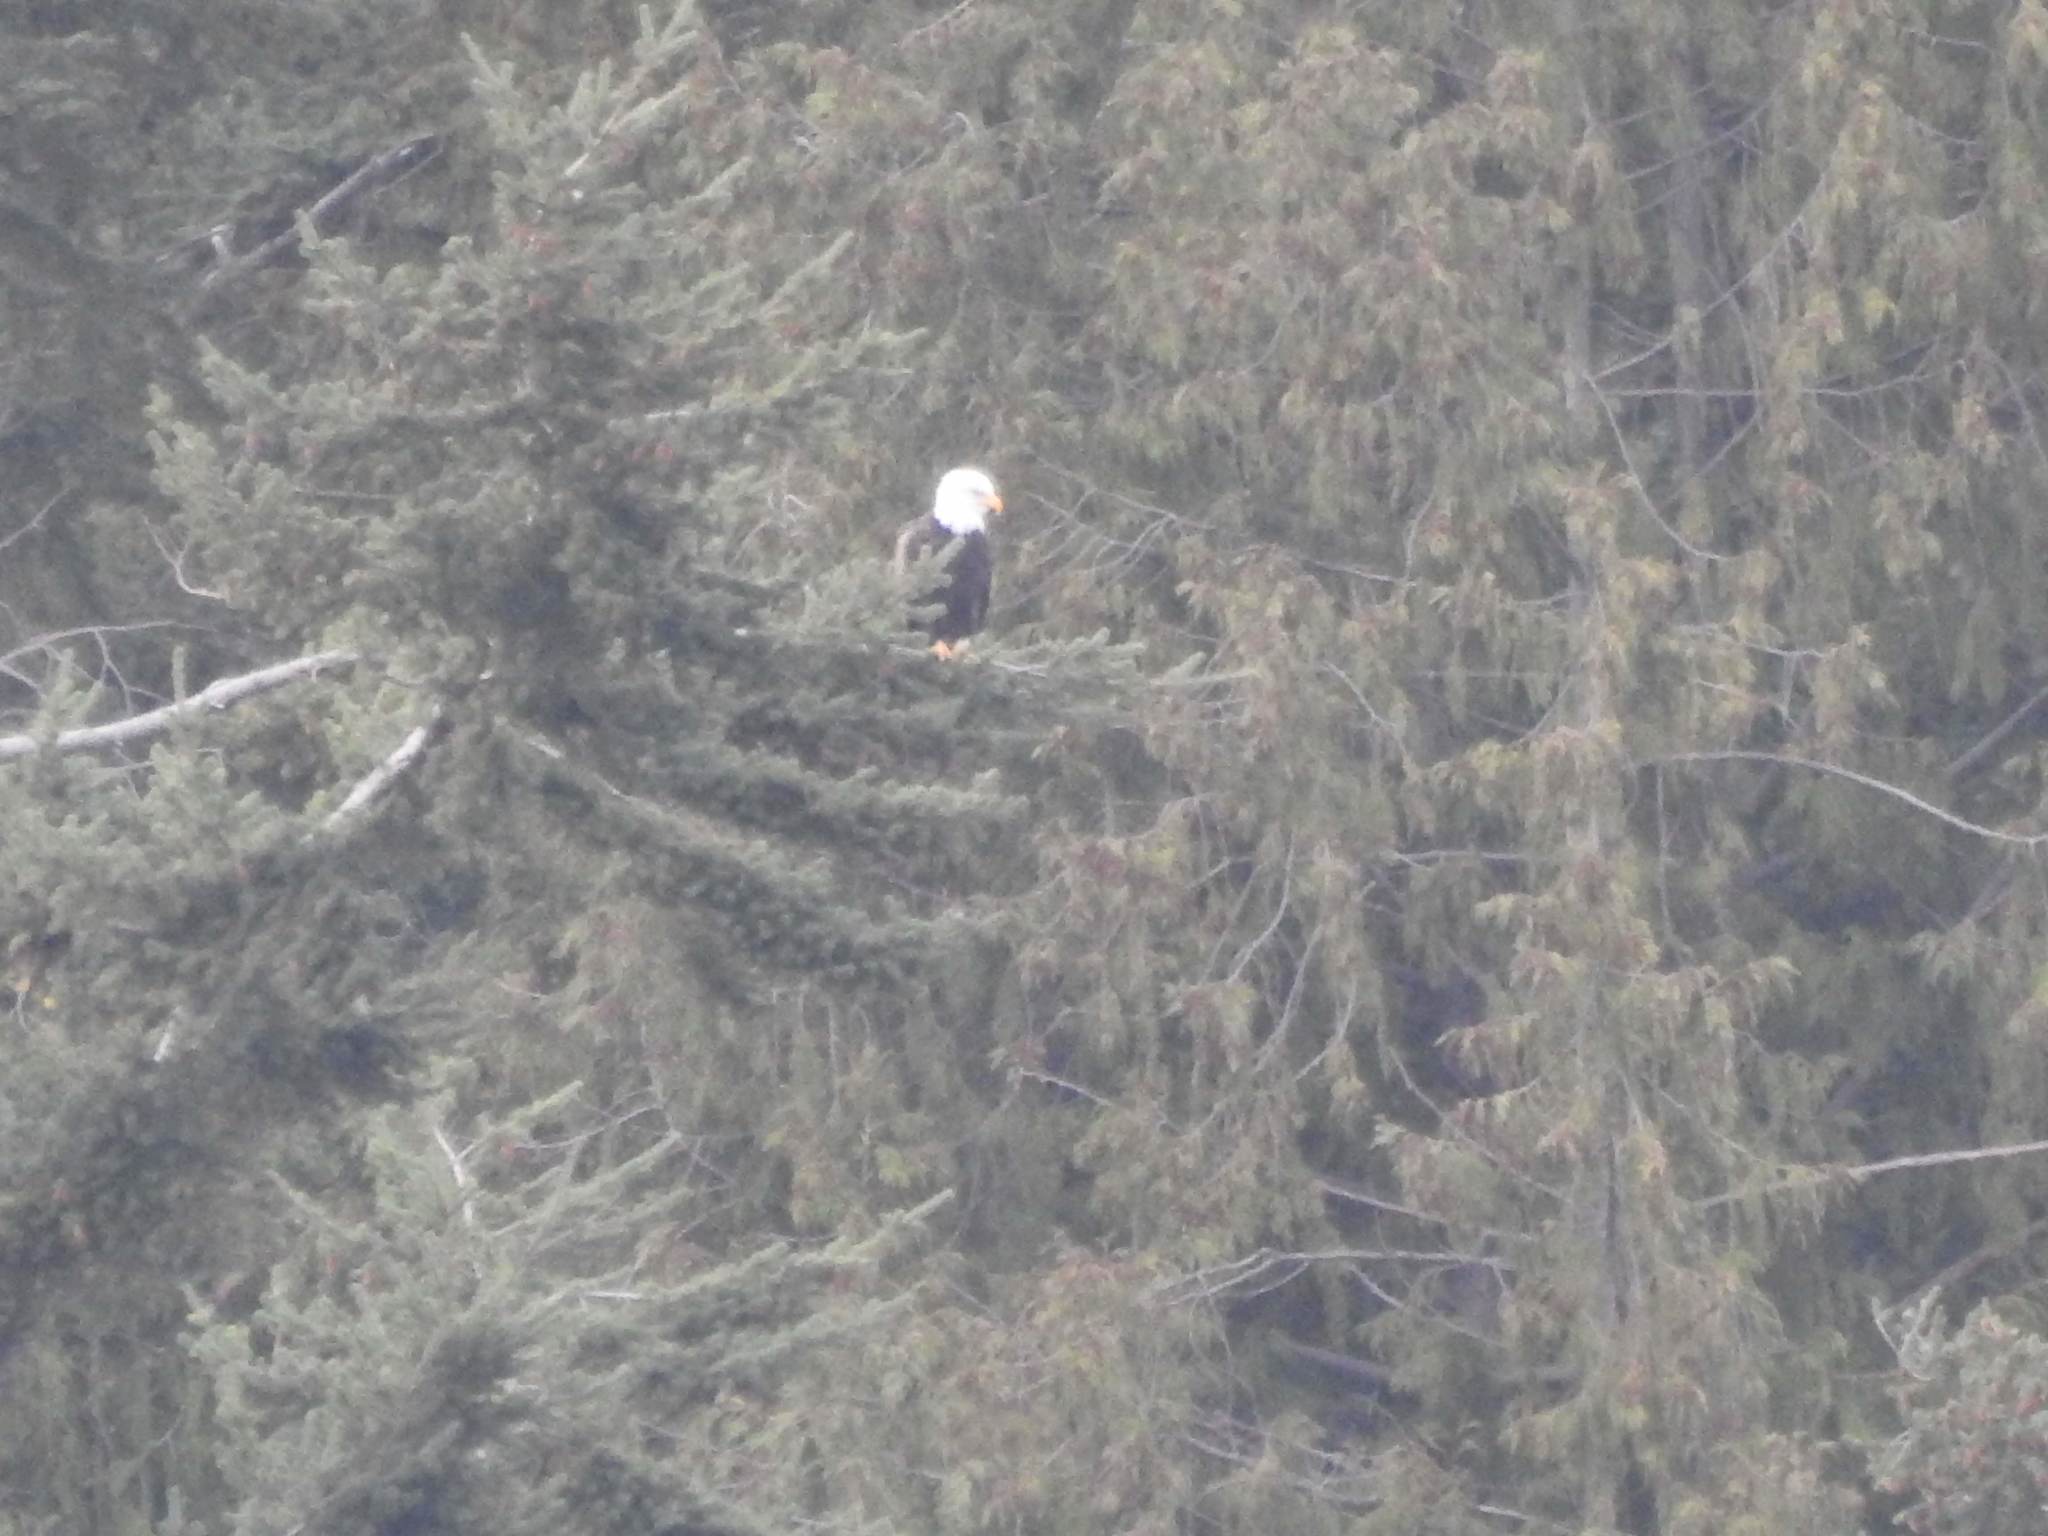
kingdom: Animalia
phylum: Chordata
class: Aves
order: Accipitriformes
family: Accipitridae
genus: Haliaeetus
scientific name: Haliaeetus leucocephalus
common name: Bald eagle
